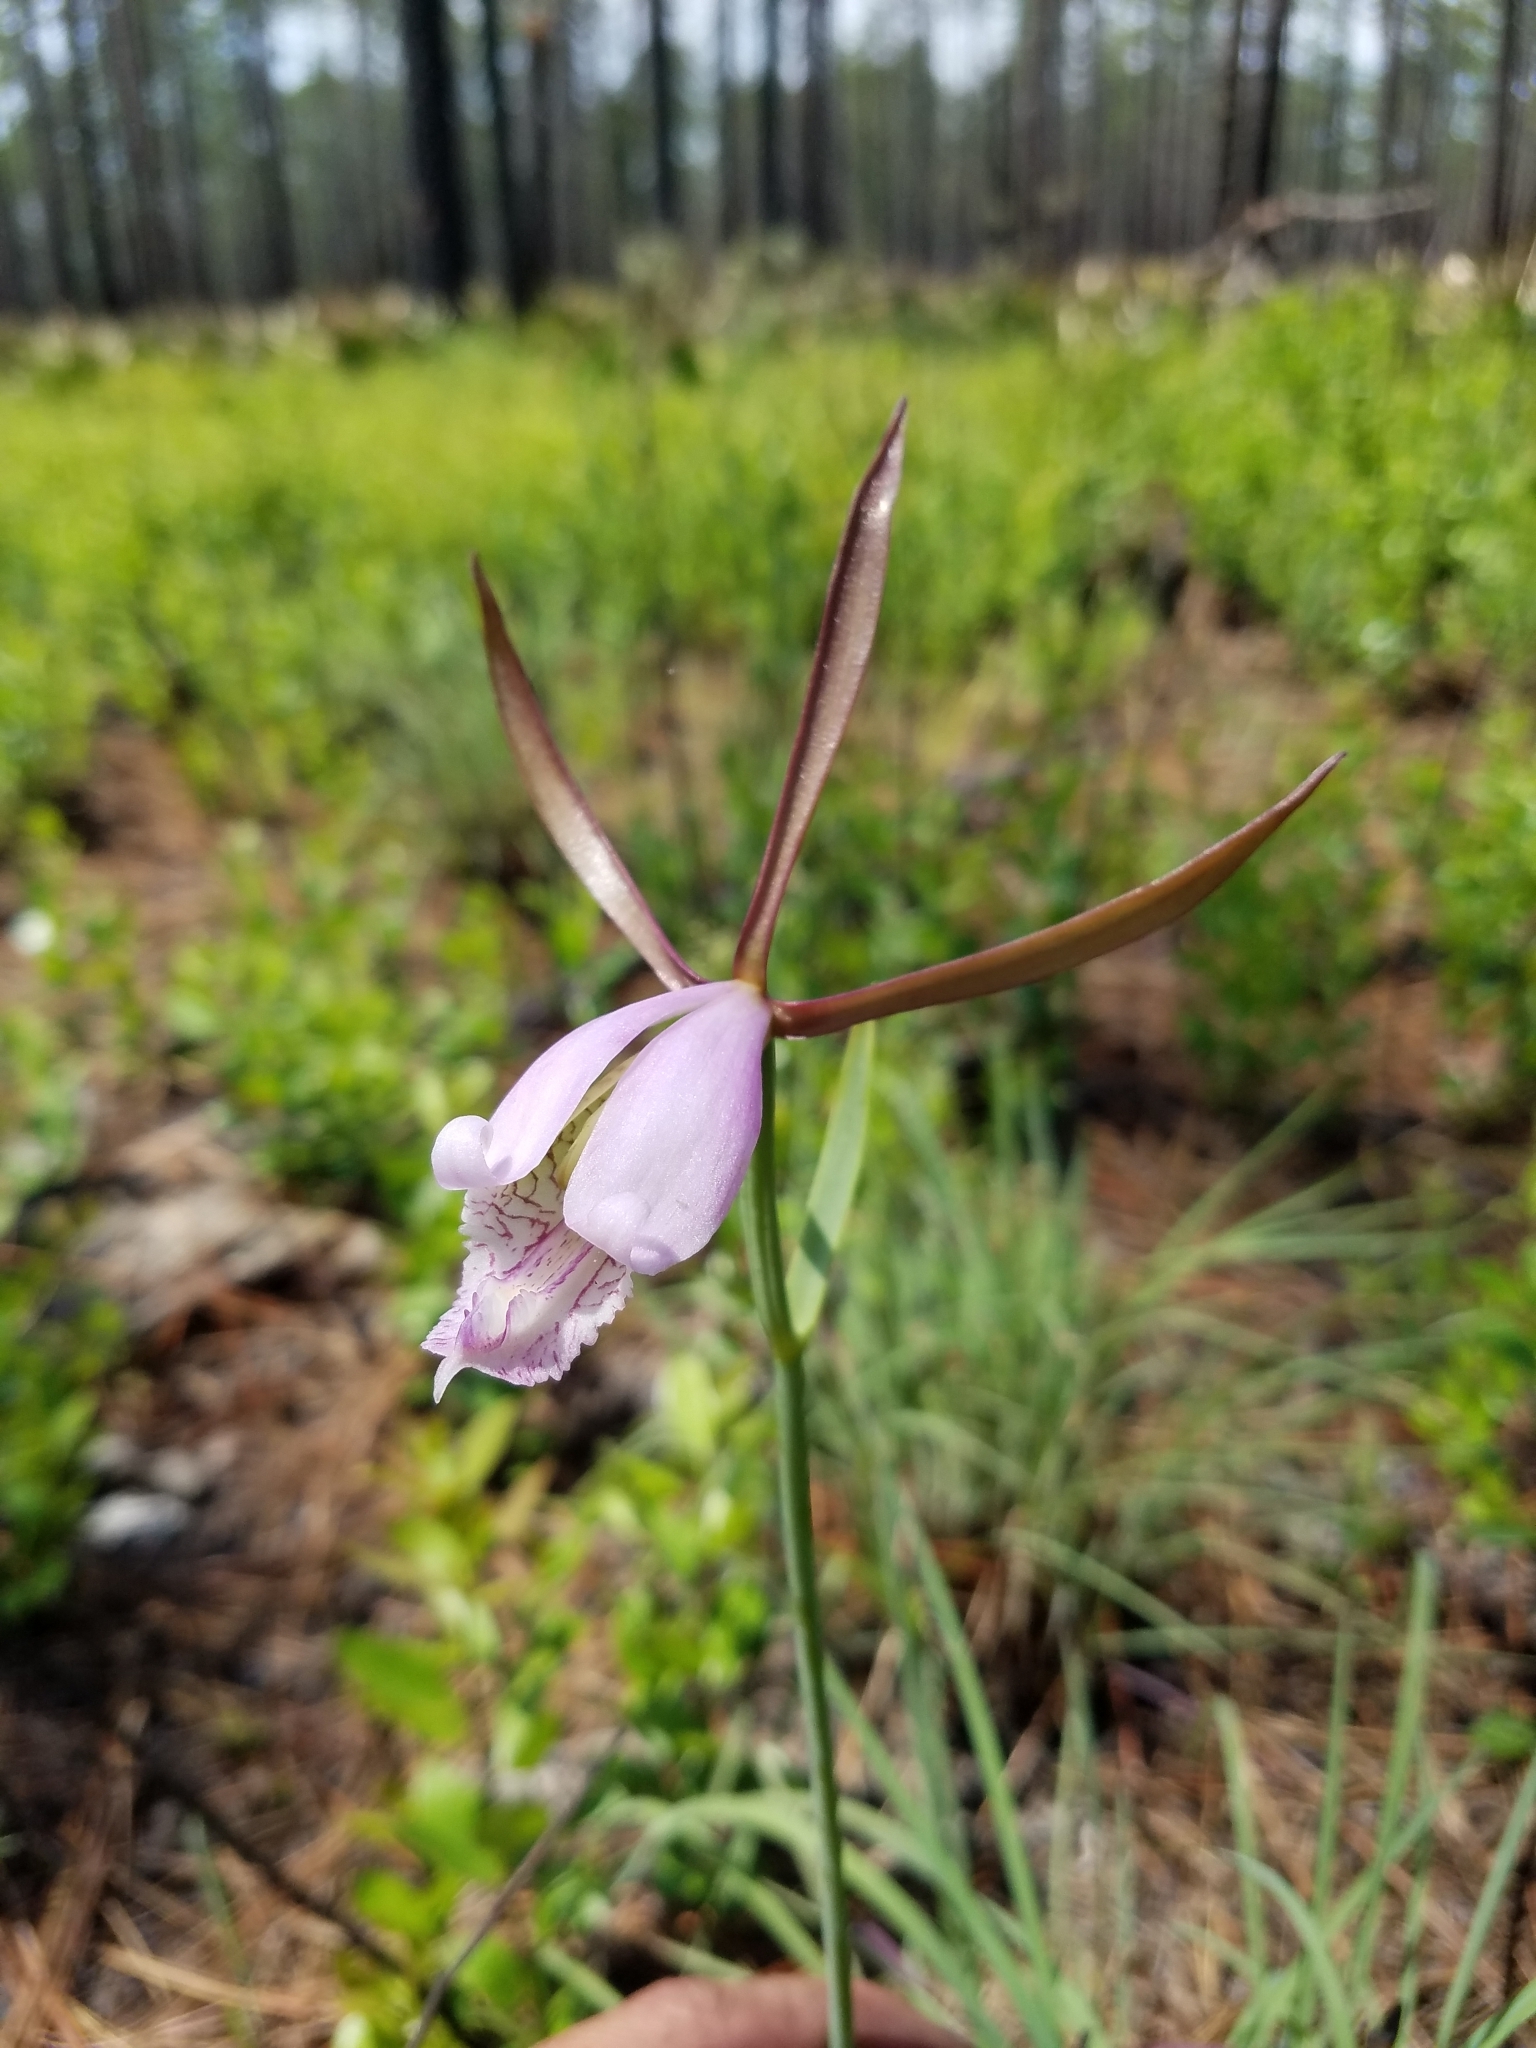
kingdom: Plantae
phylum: Tracheophyta
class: Liliopsida
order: Asparagales
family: Orchidaceae
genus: Cleistesiopsis
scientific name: Cleistesiopsis divaricata
